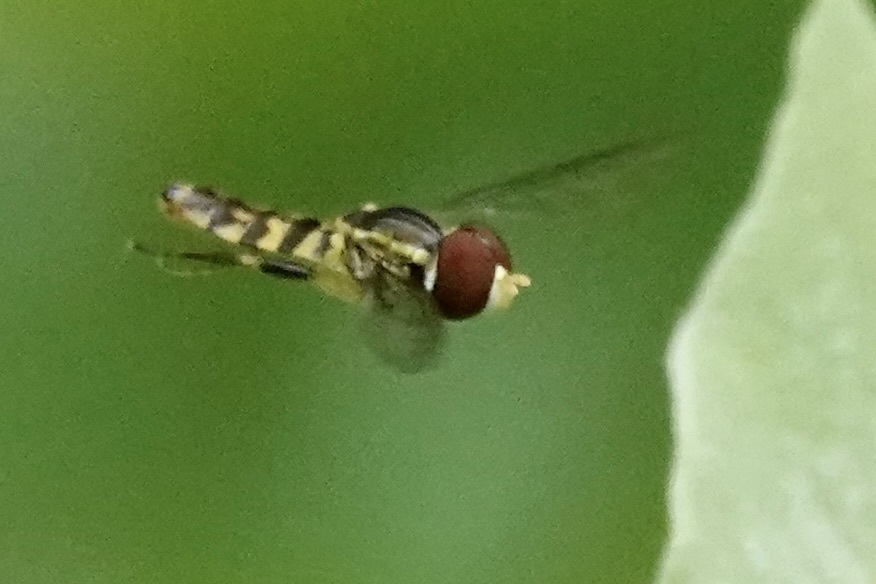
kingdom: Animalia
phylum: Arthropoda
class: Insecta
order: Diptera
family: Syrphidae
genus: Toxomerus
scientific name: Toxomerus geminatus
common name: Eastern calligrapher
